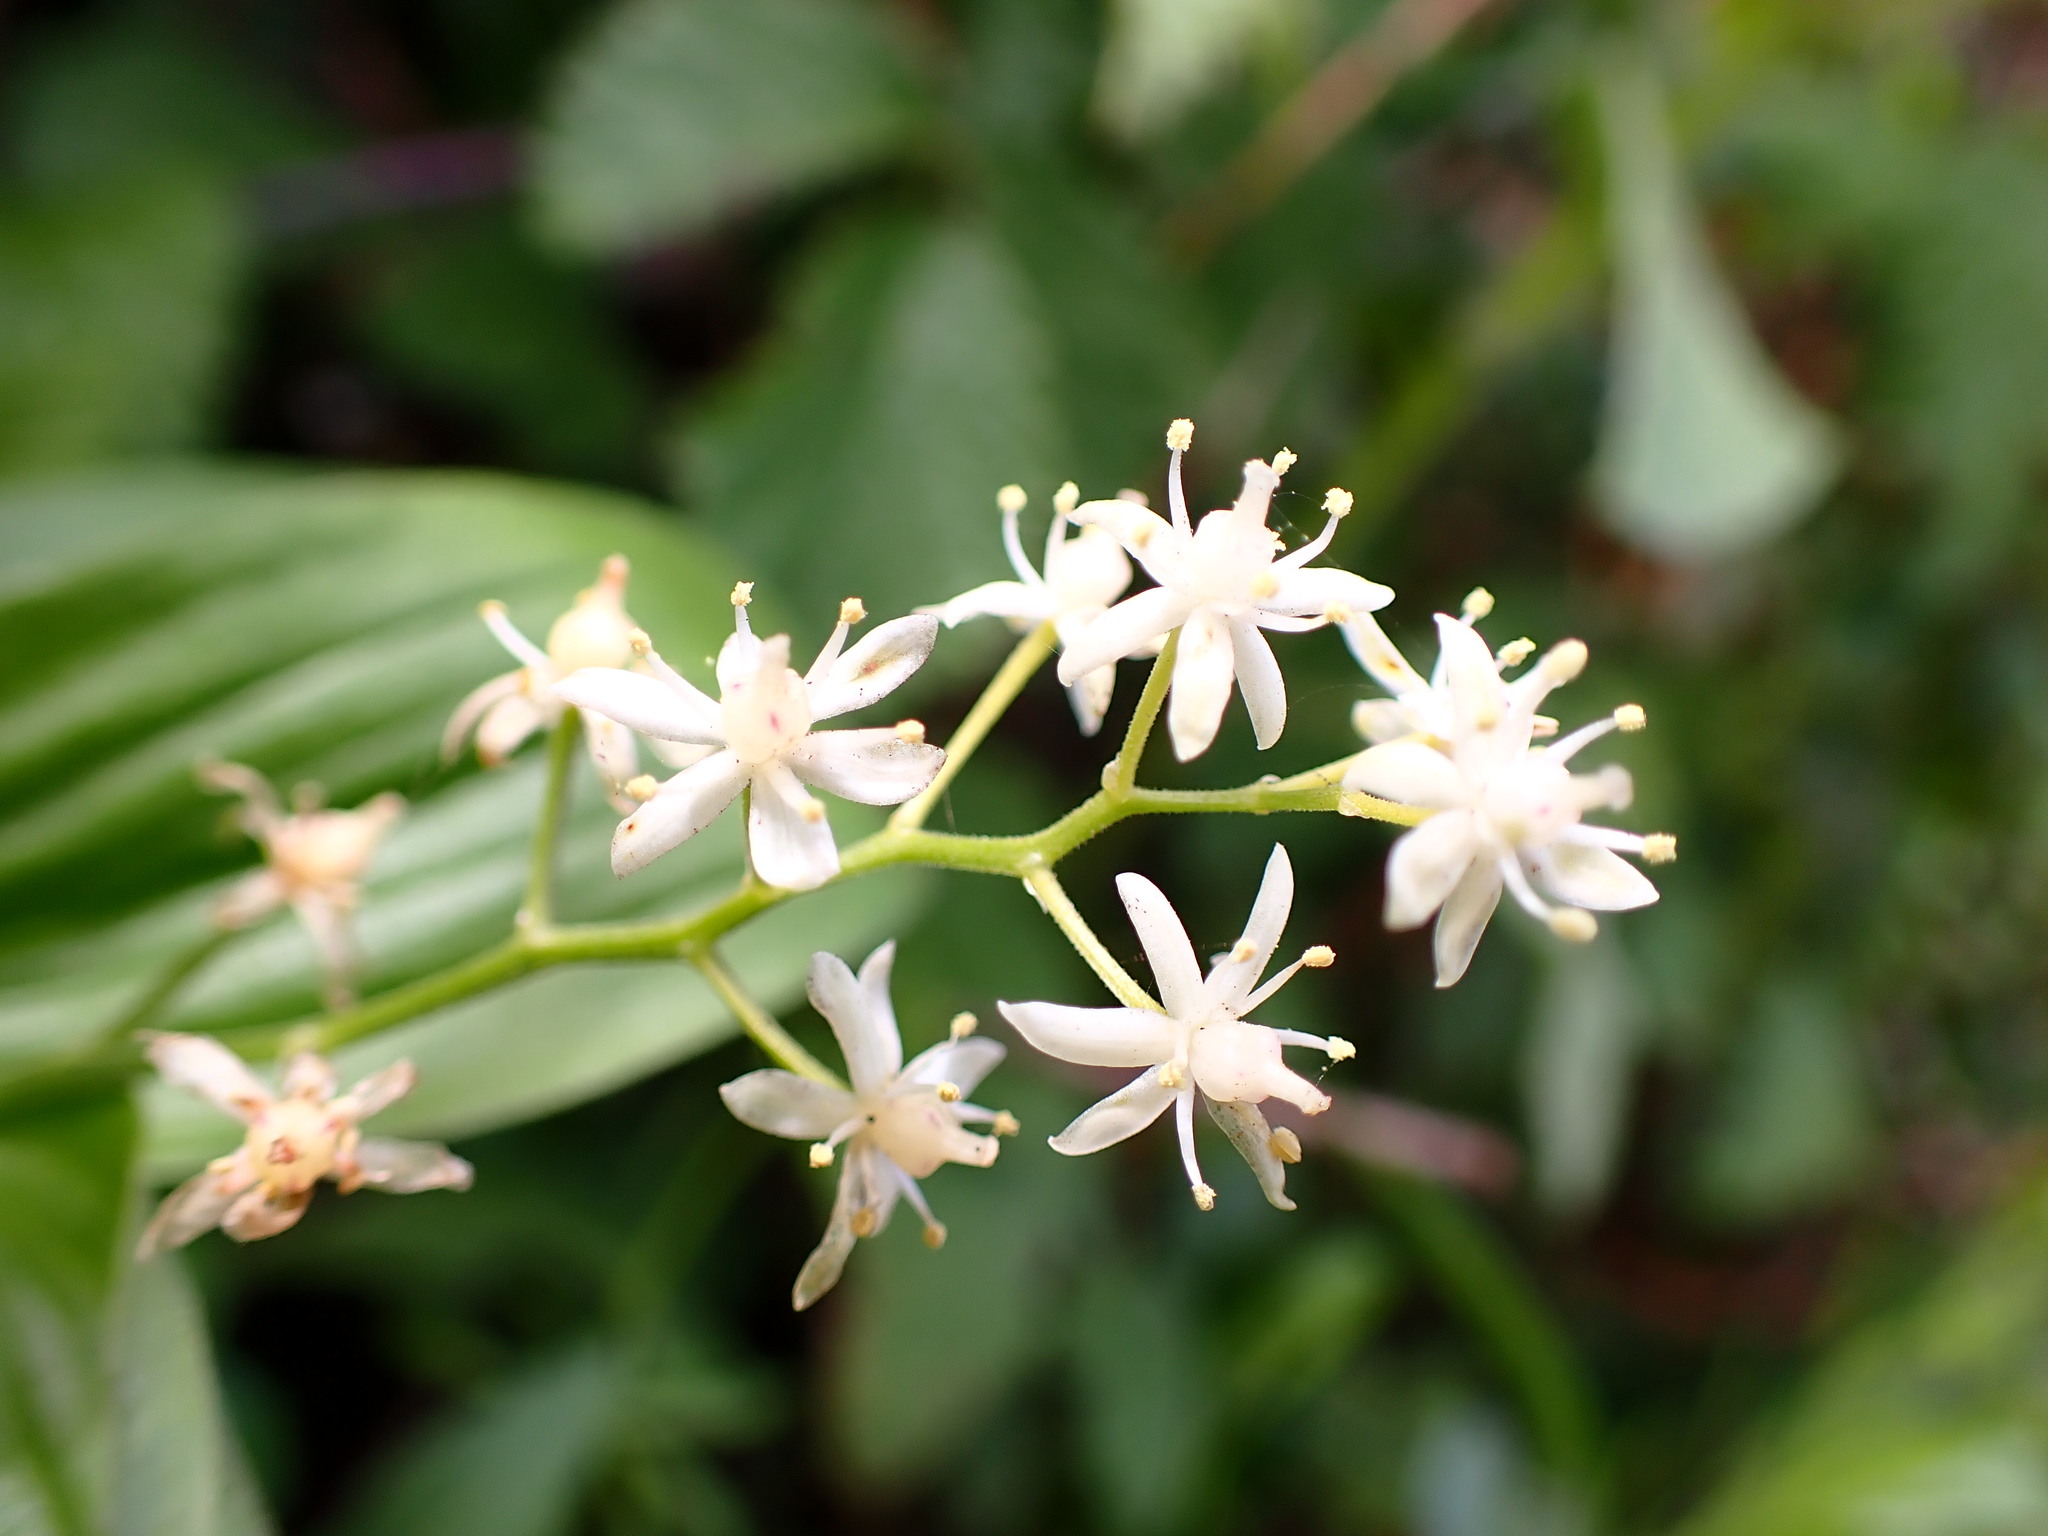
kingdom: Plantae
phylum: Tracheophyta
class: Liliopsida
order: Asparagales
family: Asparagaceae
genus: Maianthemum
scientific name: Maianthemum stellatum
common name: Little false solomon's seal
